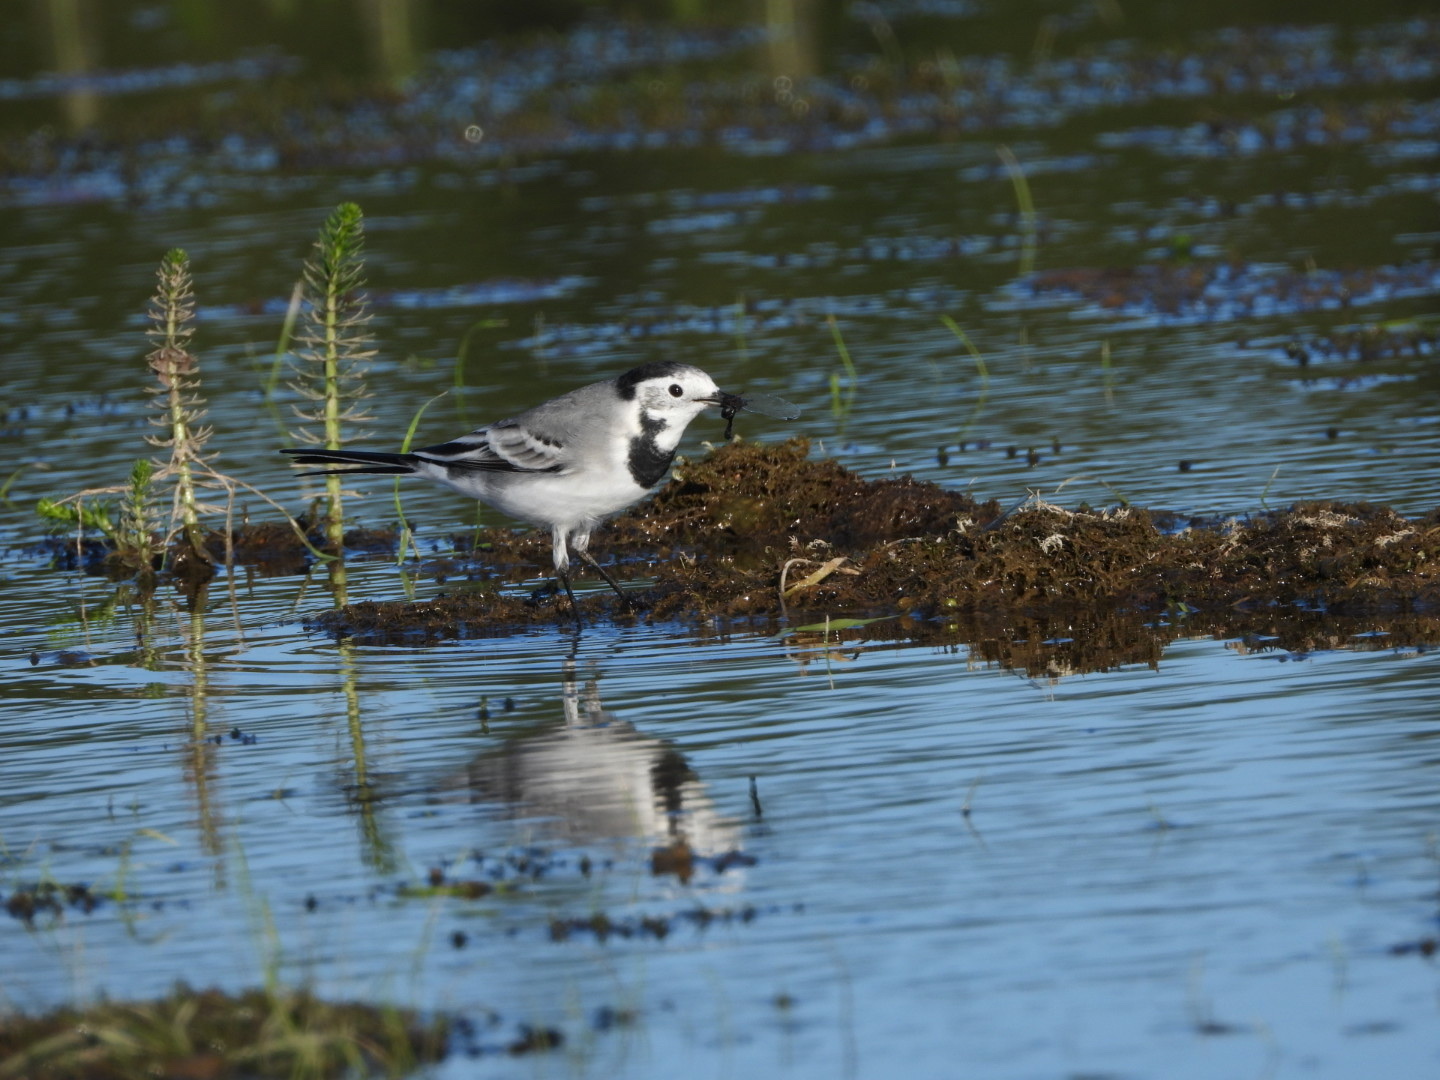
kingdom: Animalia
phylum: Chordata
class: Aves
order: Passeriformes
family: Motacillidae
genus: Motacilla
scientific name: Motacilla alba
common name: White wagtail
